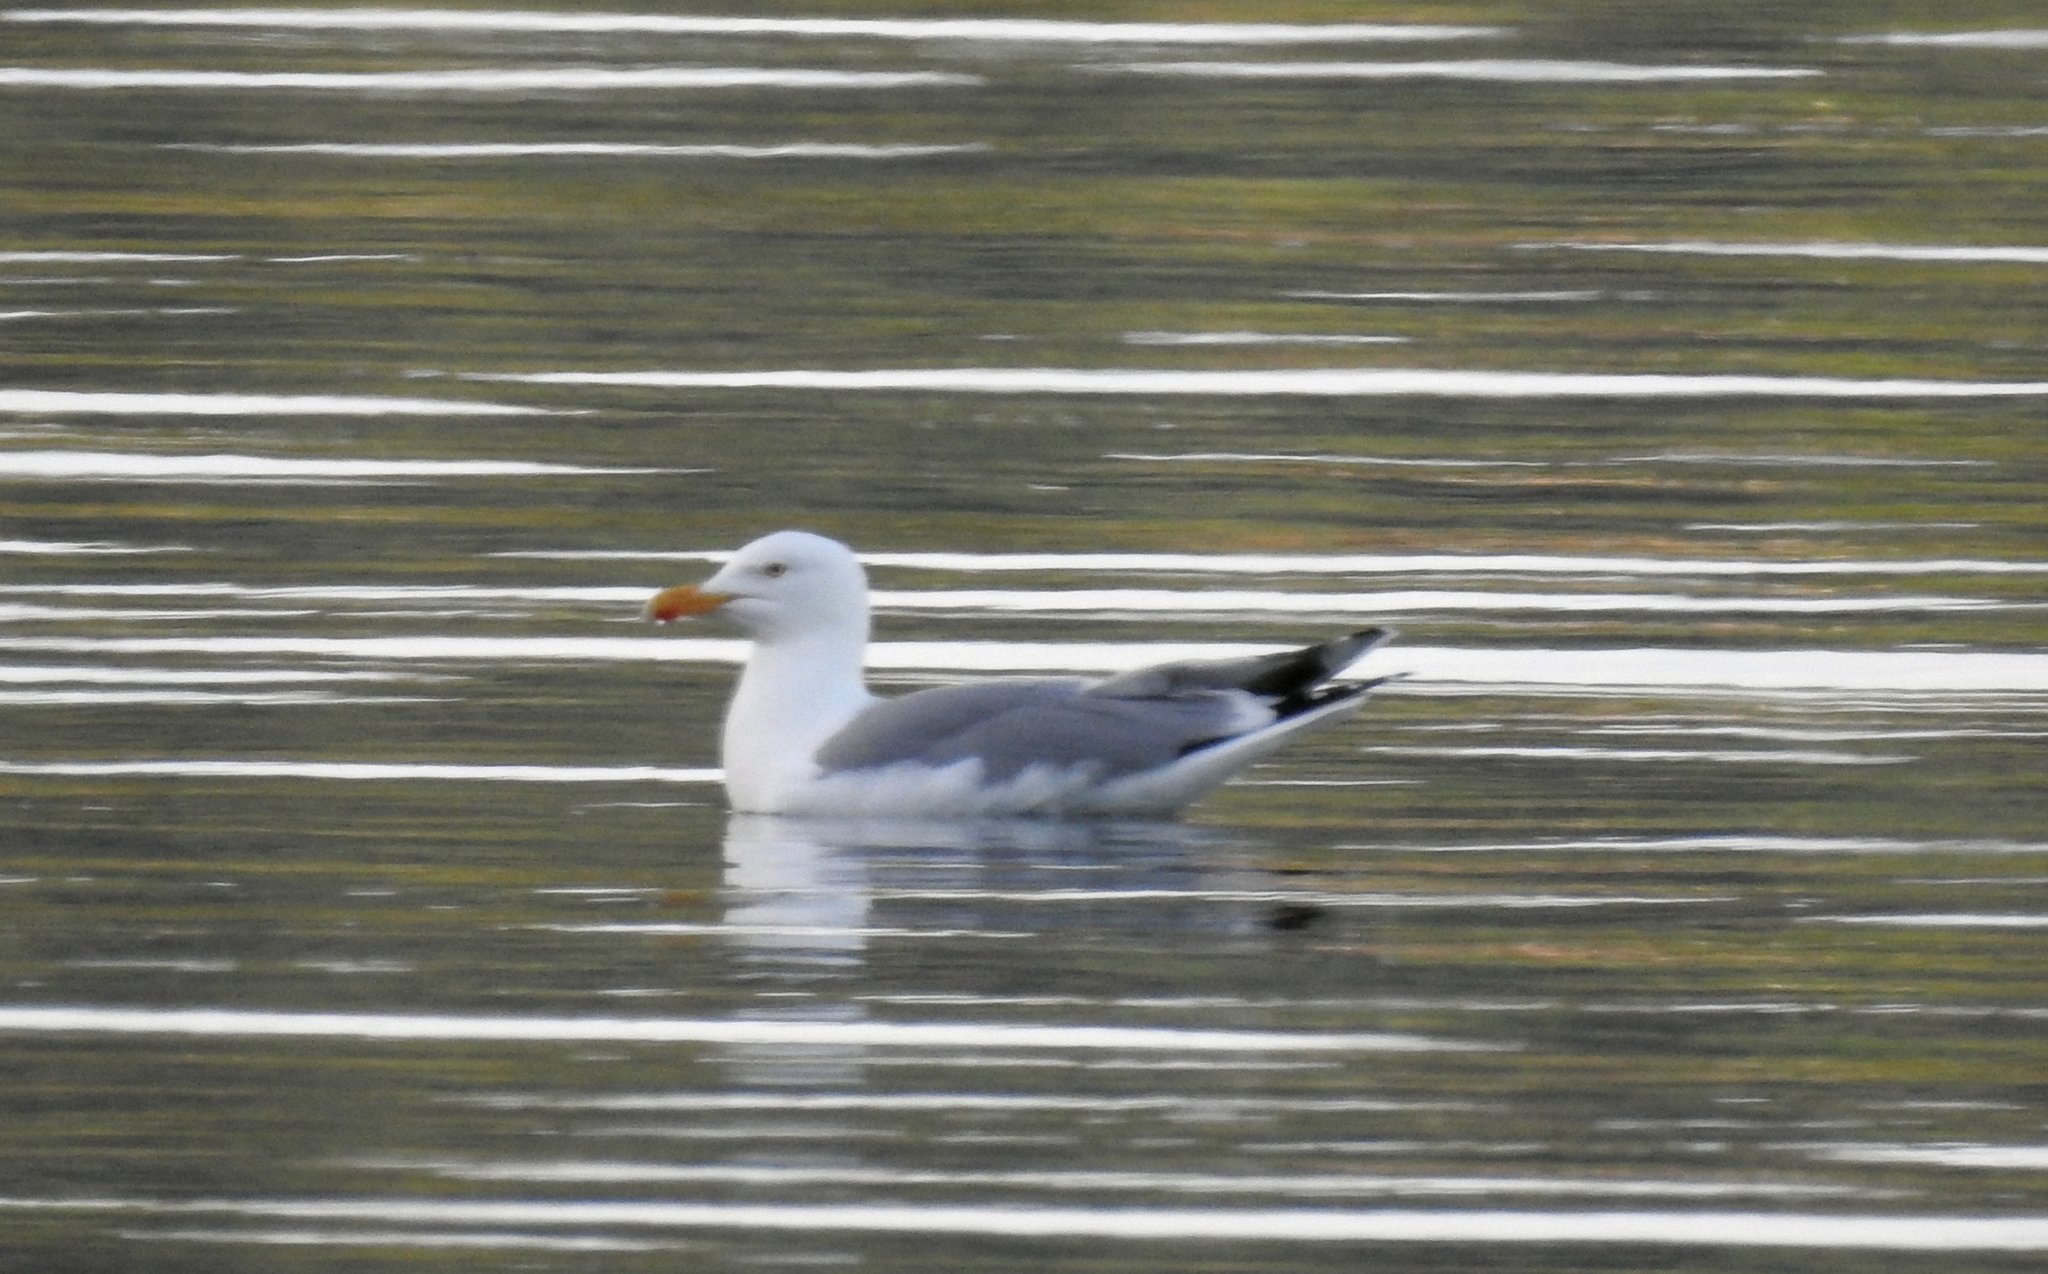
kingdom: Animalia
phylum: Chordata
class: Aves
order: Charadriiformes
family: Laridae
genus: Larus
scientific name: Larus argentatus
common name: Herring gull
